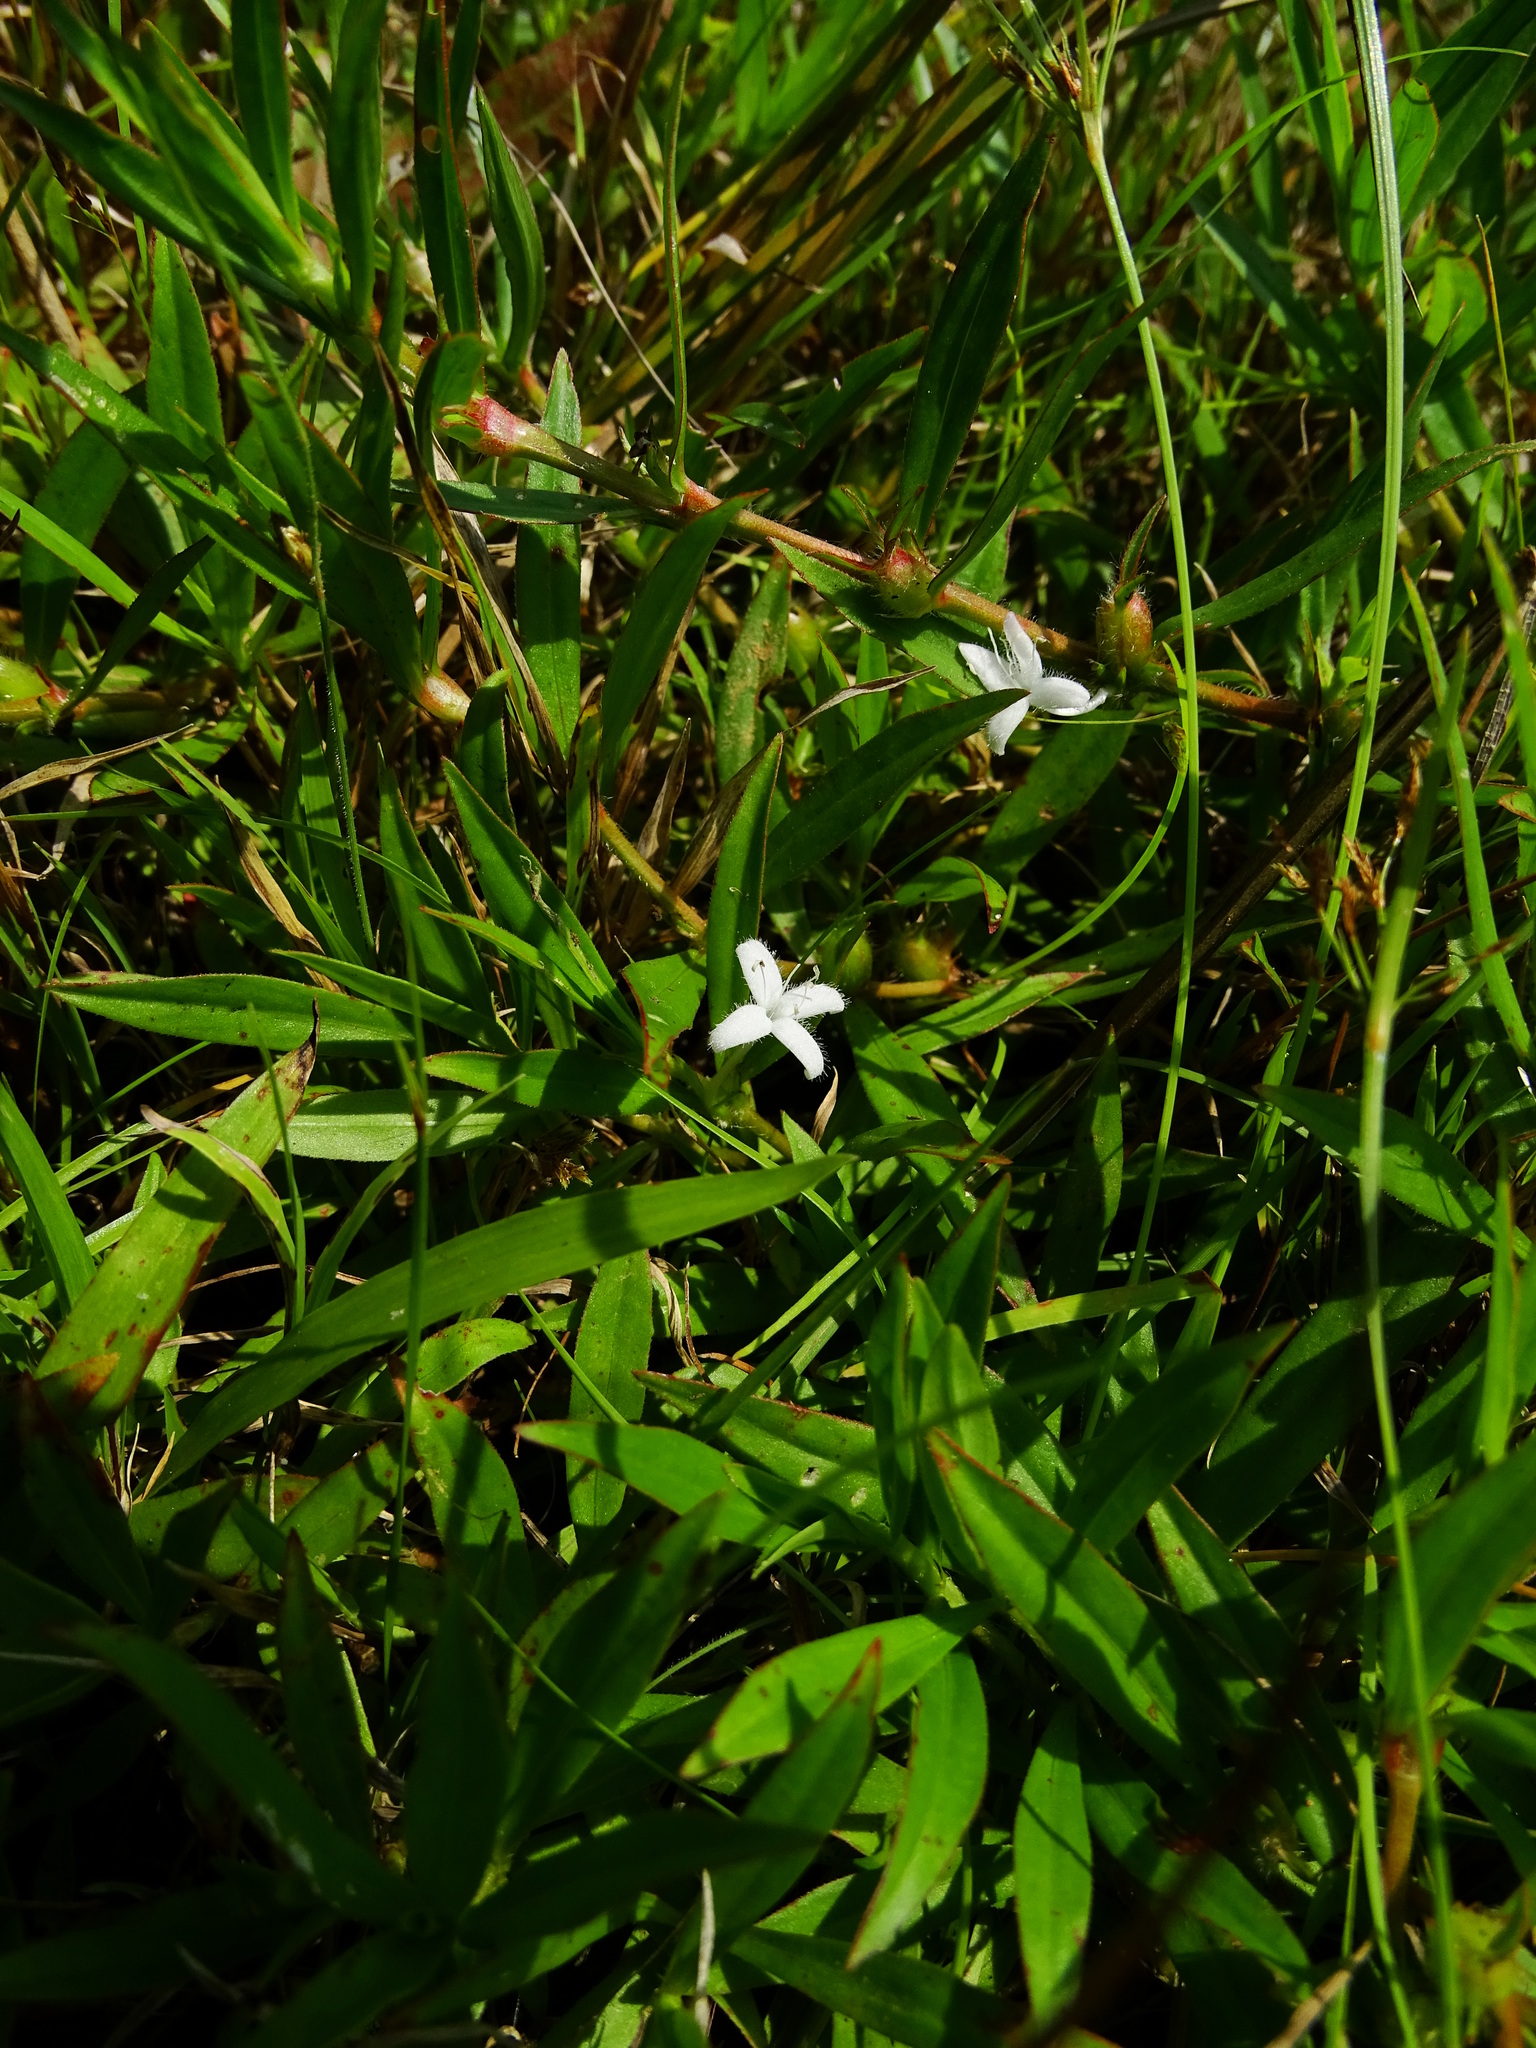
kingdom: Plantae
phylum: Tracheophyta
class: Magnoliopsida
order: Gentianales
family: Rubiaceae
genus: Diodia
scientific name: Diodia virginiana
